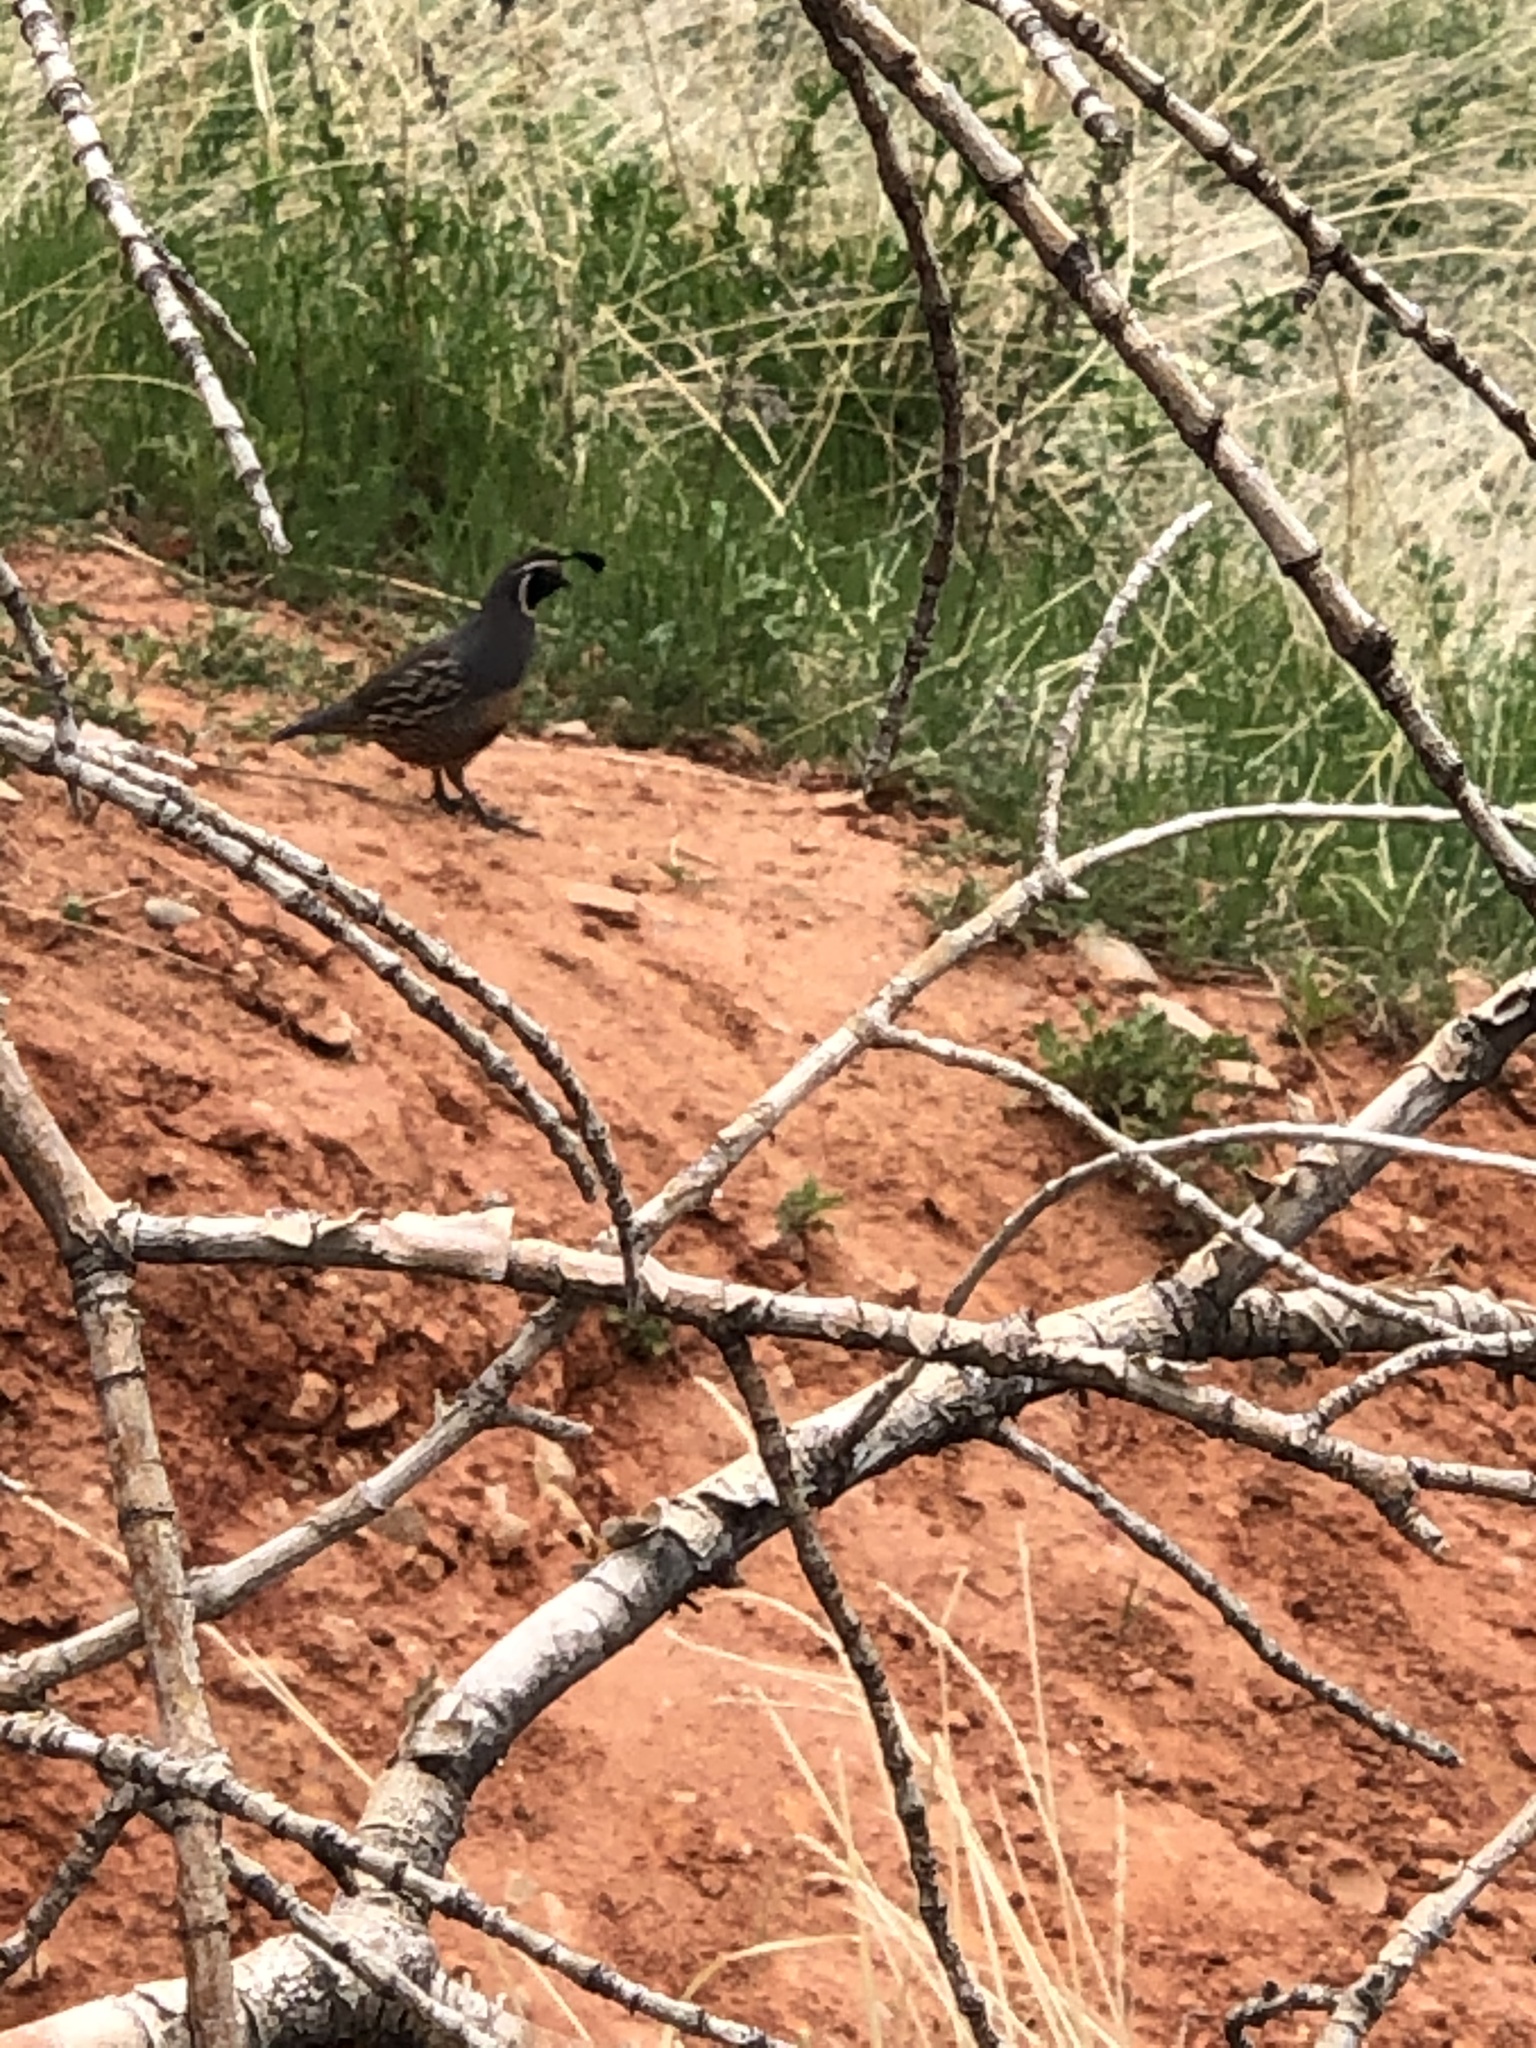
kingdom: Animalia
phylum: Chordata
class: Aves
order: Galliformes
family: Odontophoridae
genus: Callipepla
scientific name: Callipepla californica
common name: California quail
